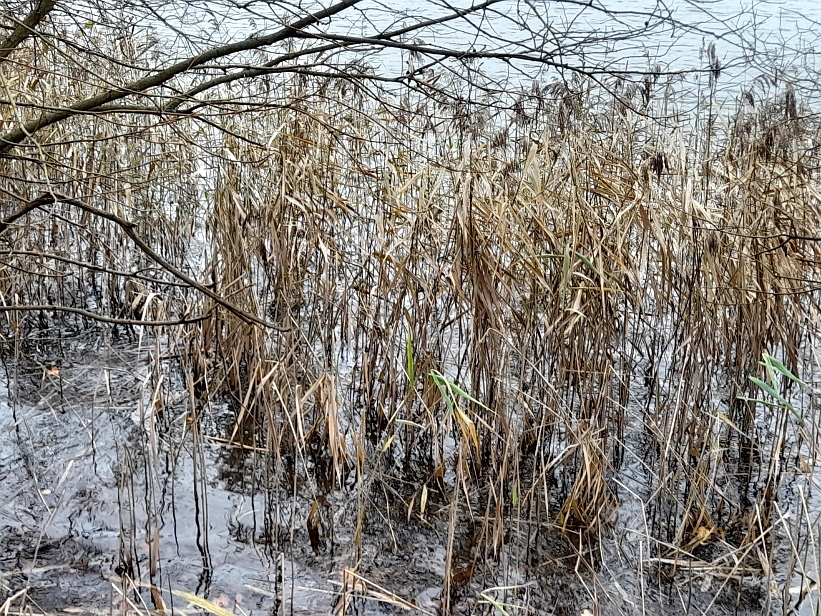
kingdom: Plantae
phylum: Tracheophyta
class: Liliopsida
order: Poales
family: Poaceae
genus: Phragmites
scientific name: Phragmites australis
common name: Common reed
